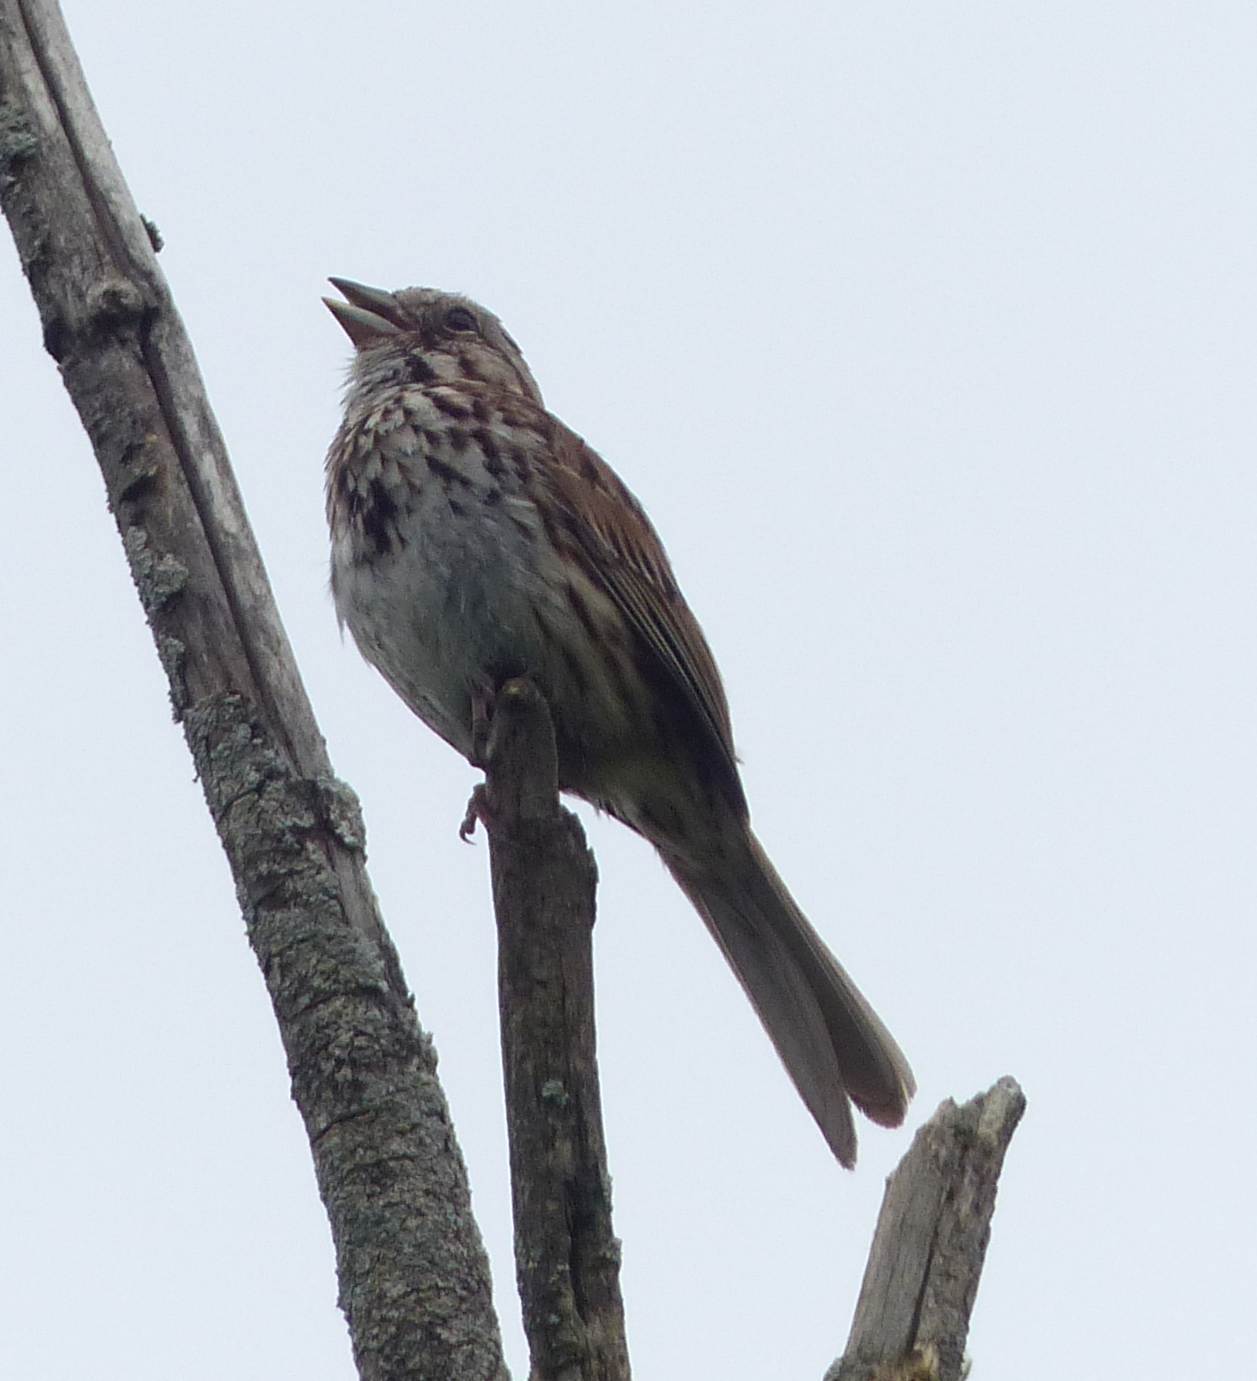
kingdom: Animalia
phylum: Chordata
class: Aves
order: Passeriformes
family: Passerellidae
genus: Melospiza
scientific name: Melospiza melodia
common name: Song sparrow
